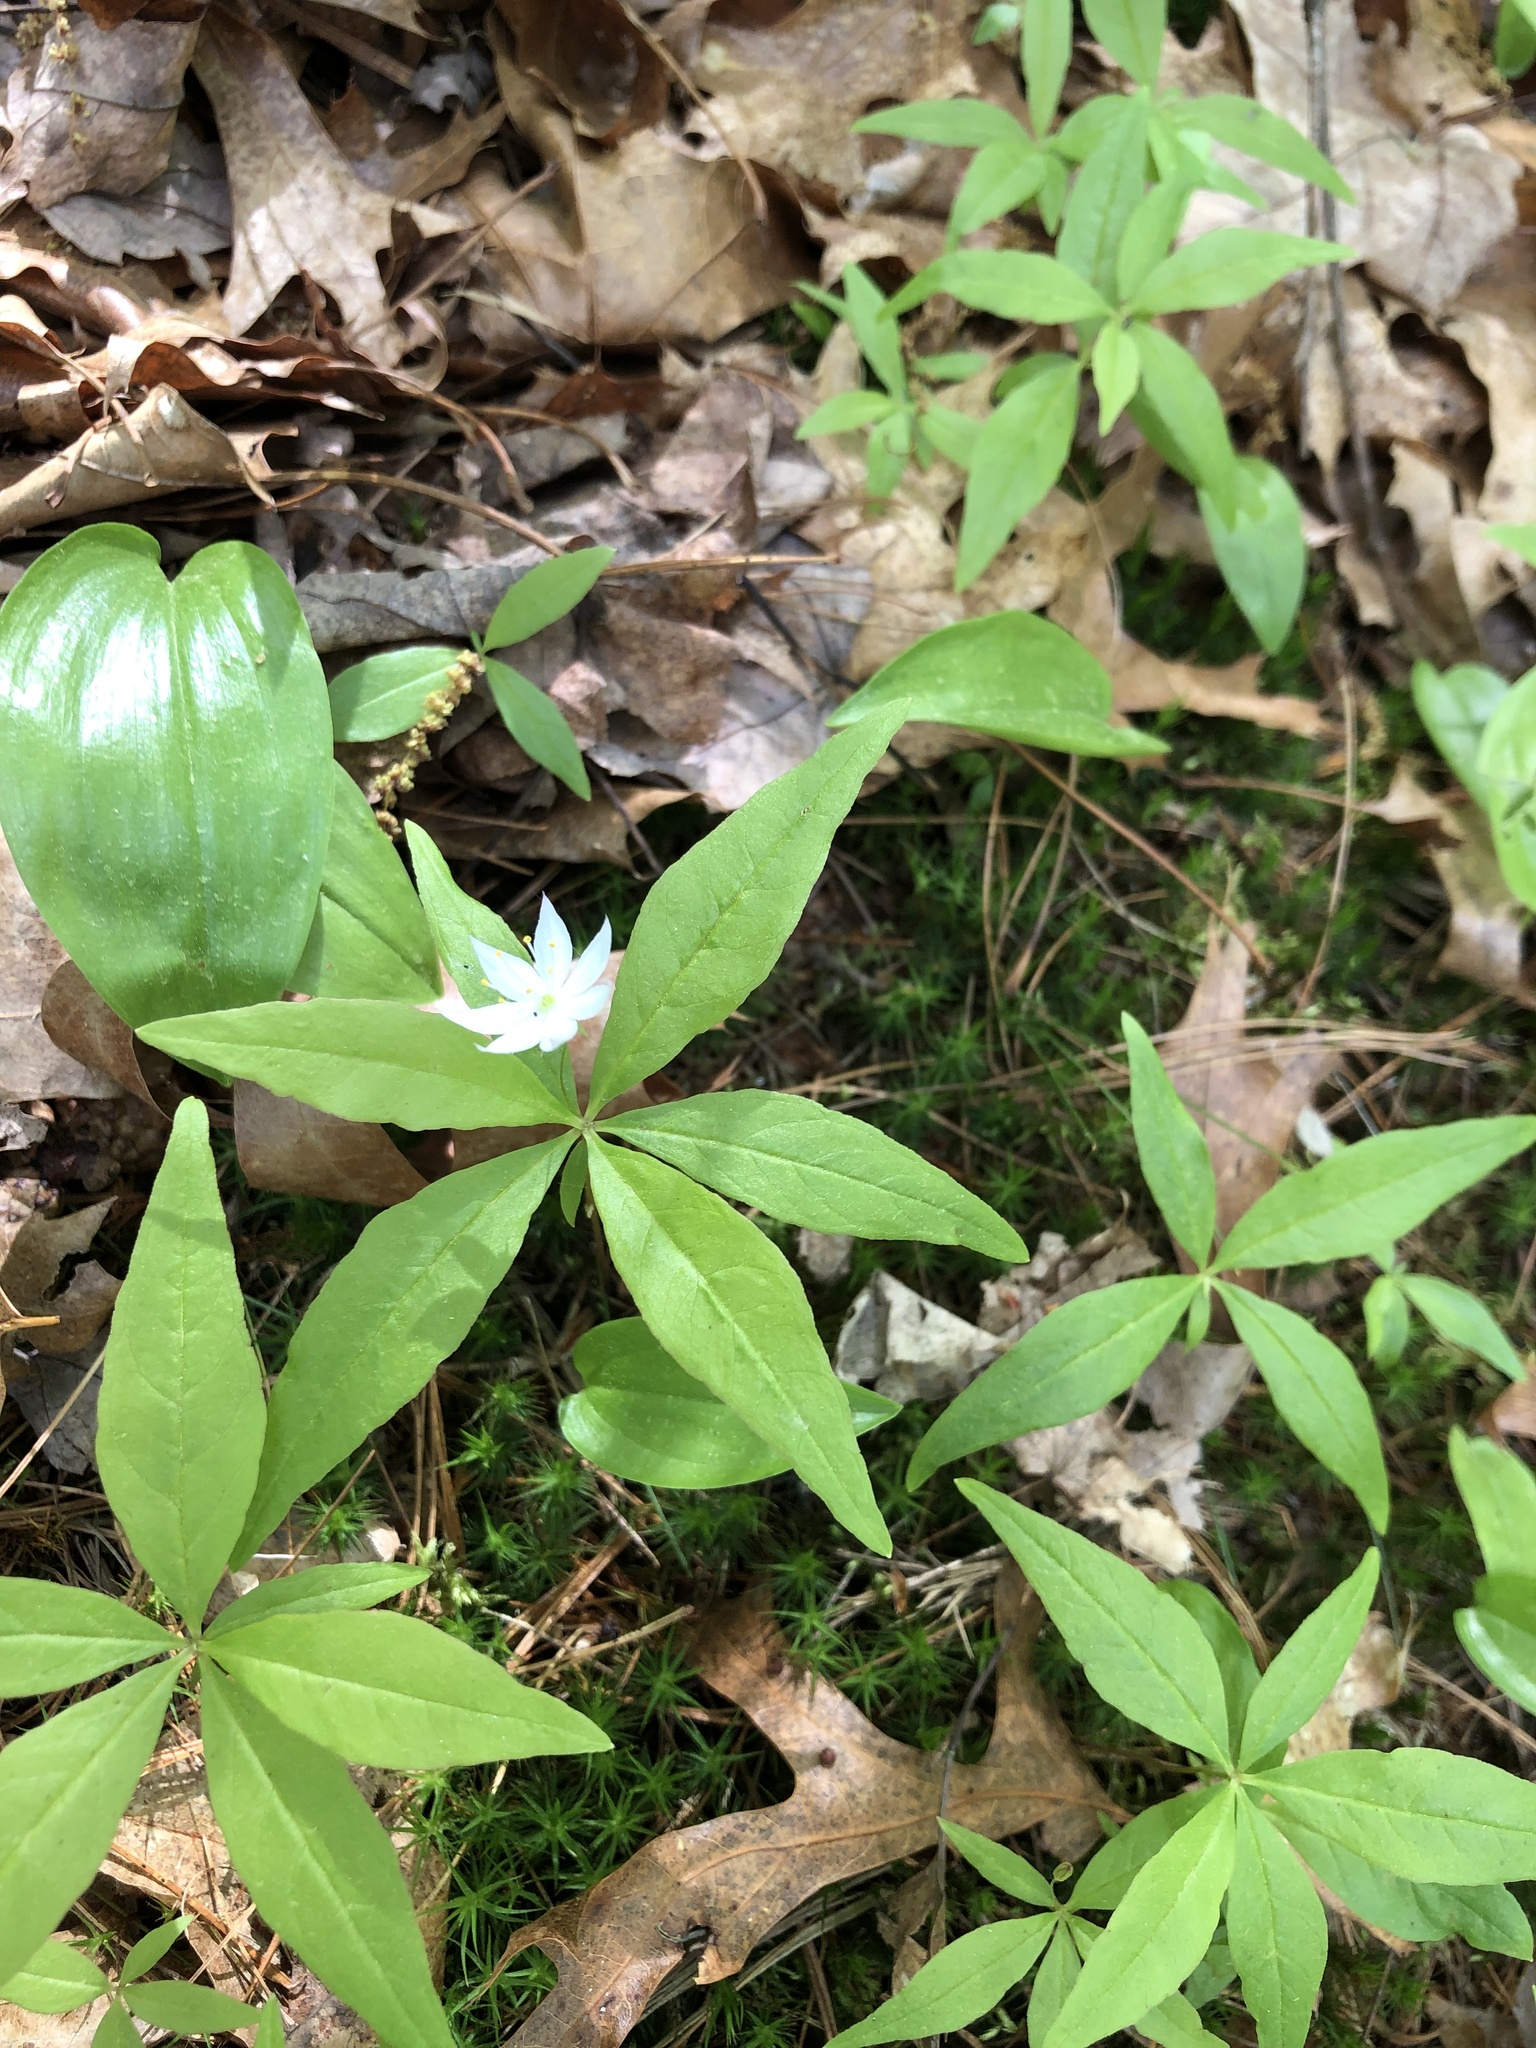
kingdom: Plantae
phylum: Tracheophyta
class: Magnoliopsida
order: Ericales
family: Primulaceae
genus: Lysimachia
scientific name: Lysimachia borealis
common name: American starflower
